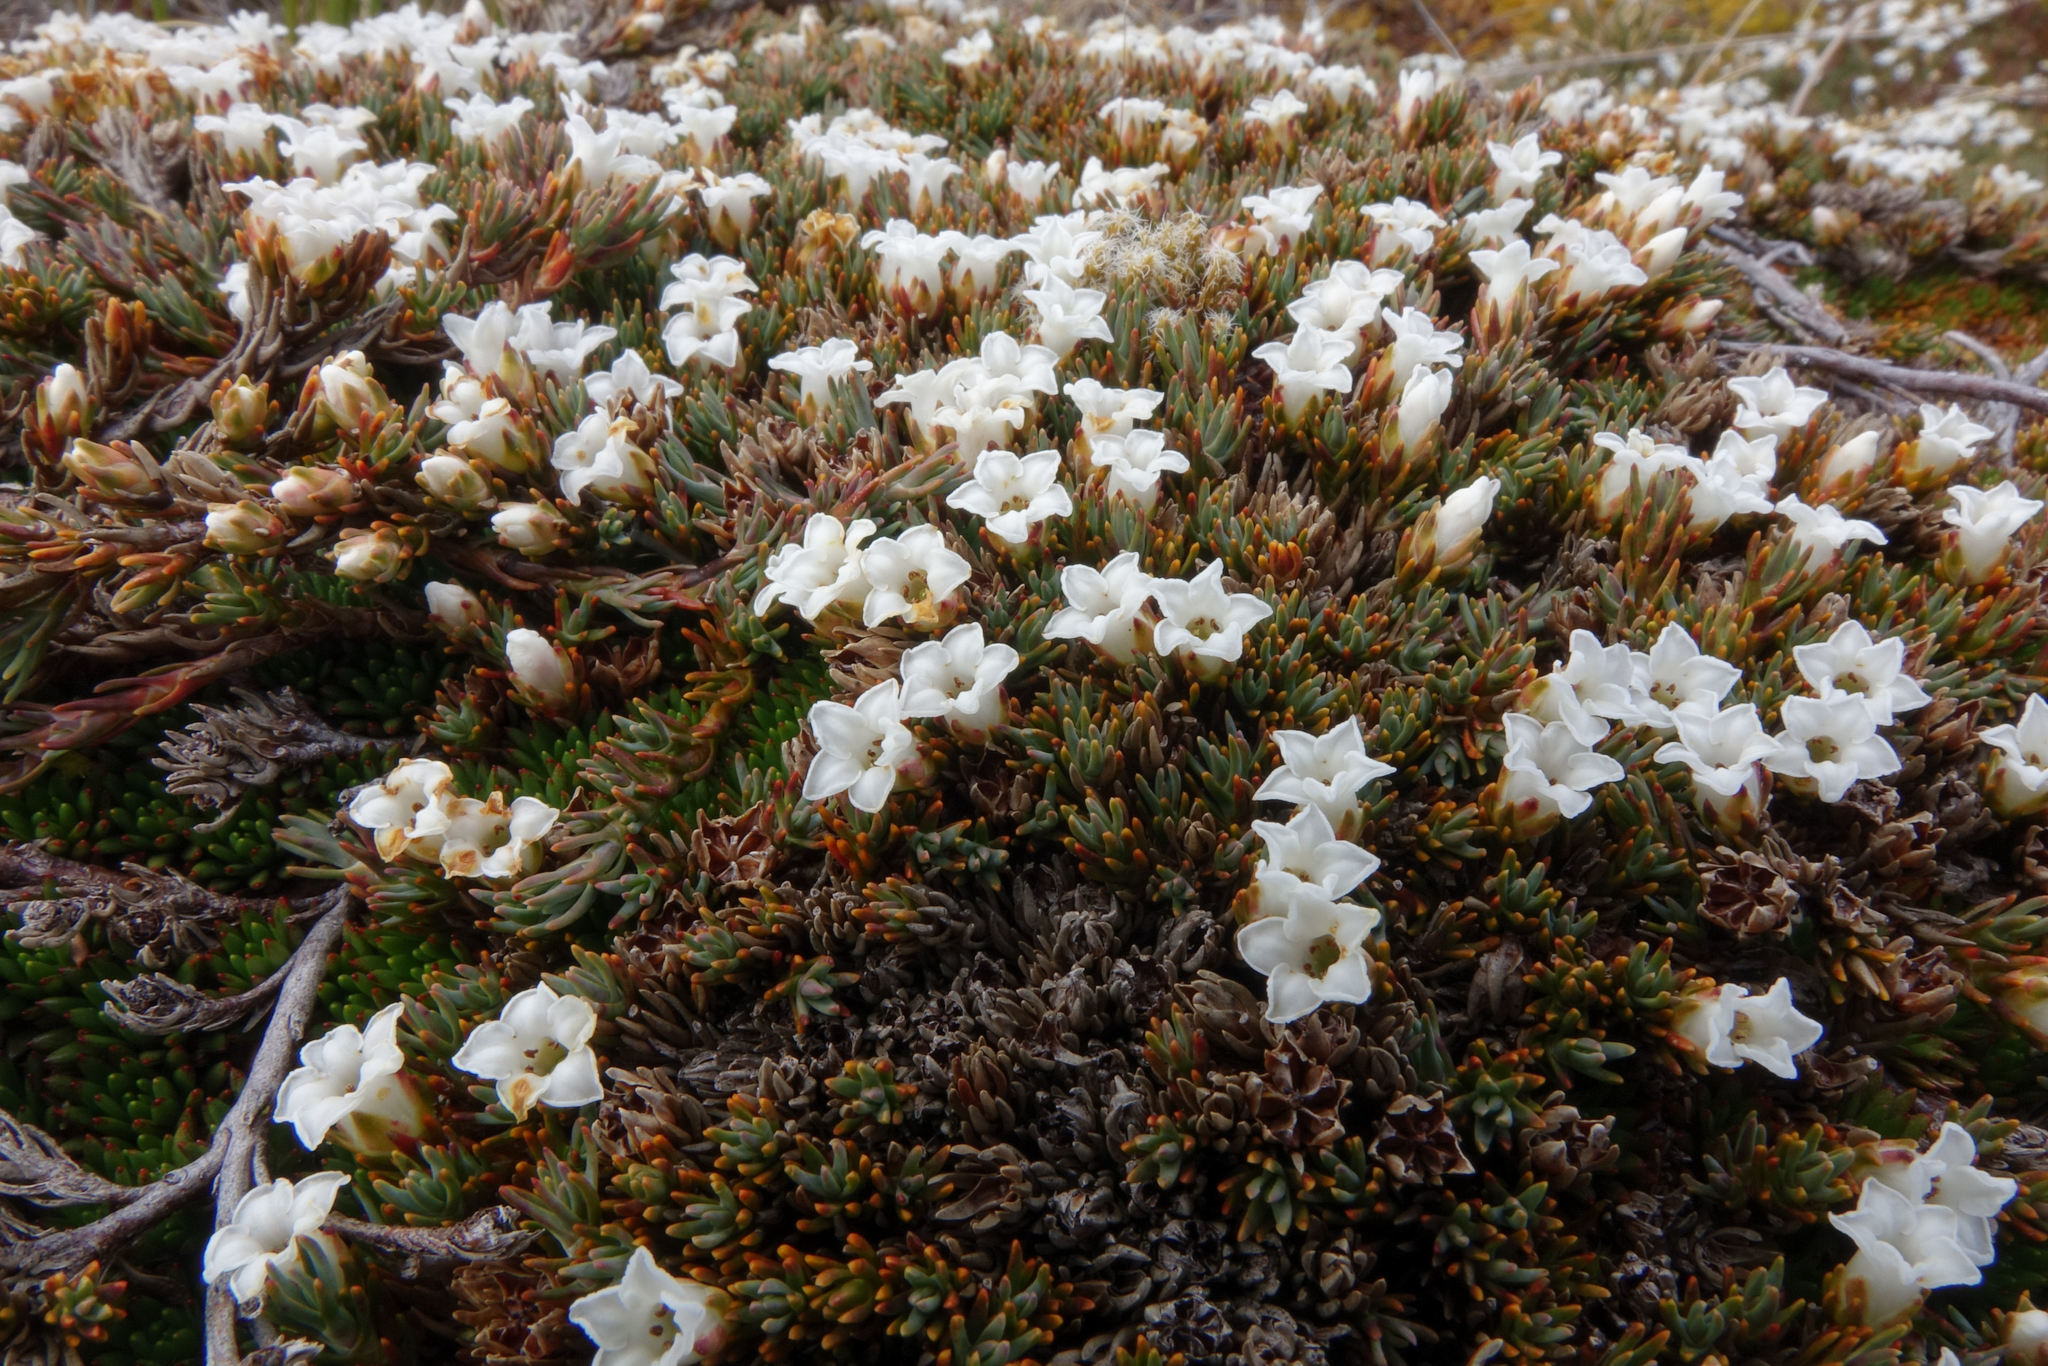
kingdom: Plantae
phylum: Tracheophyta
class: Magnoliopsida
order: Ericales
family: Ericaceae
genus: Dracophyllum
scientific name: Dracophyllum prostratum
